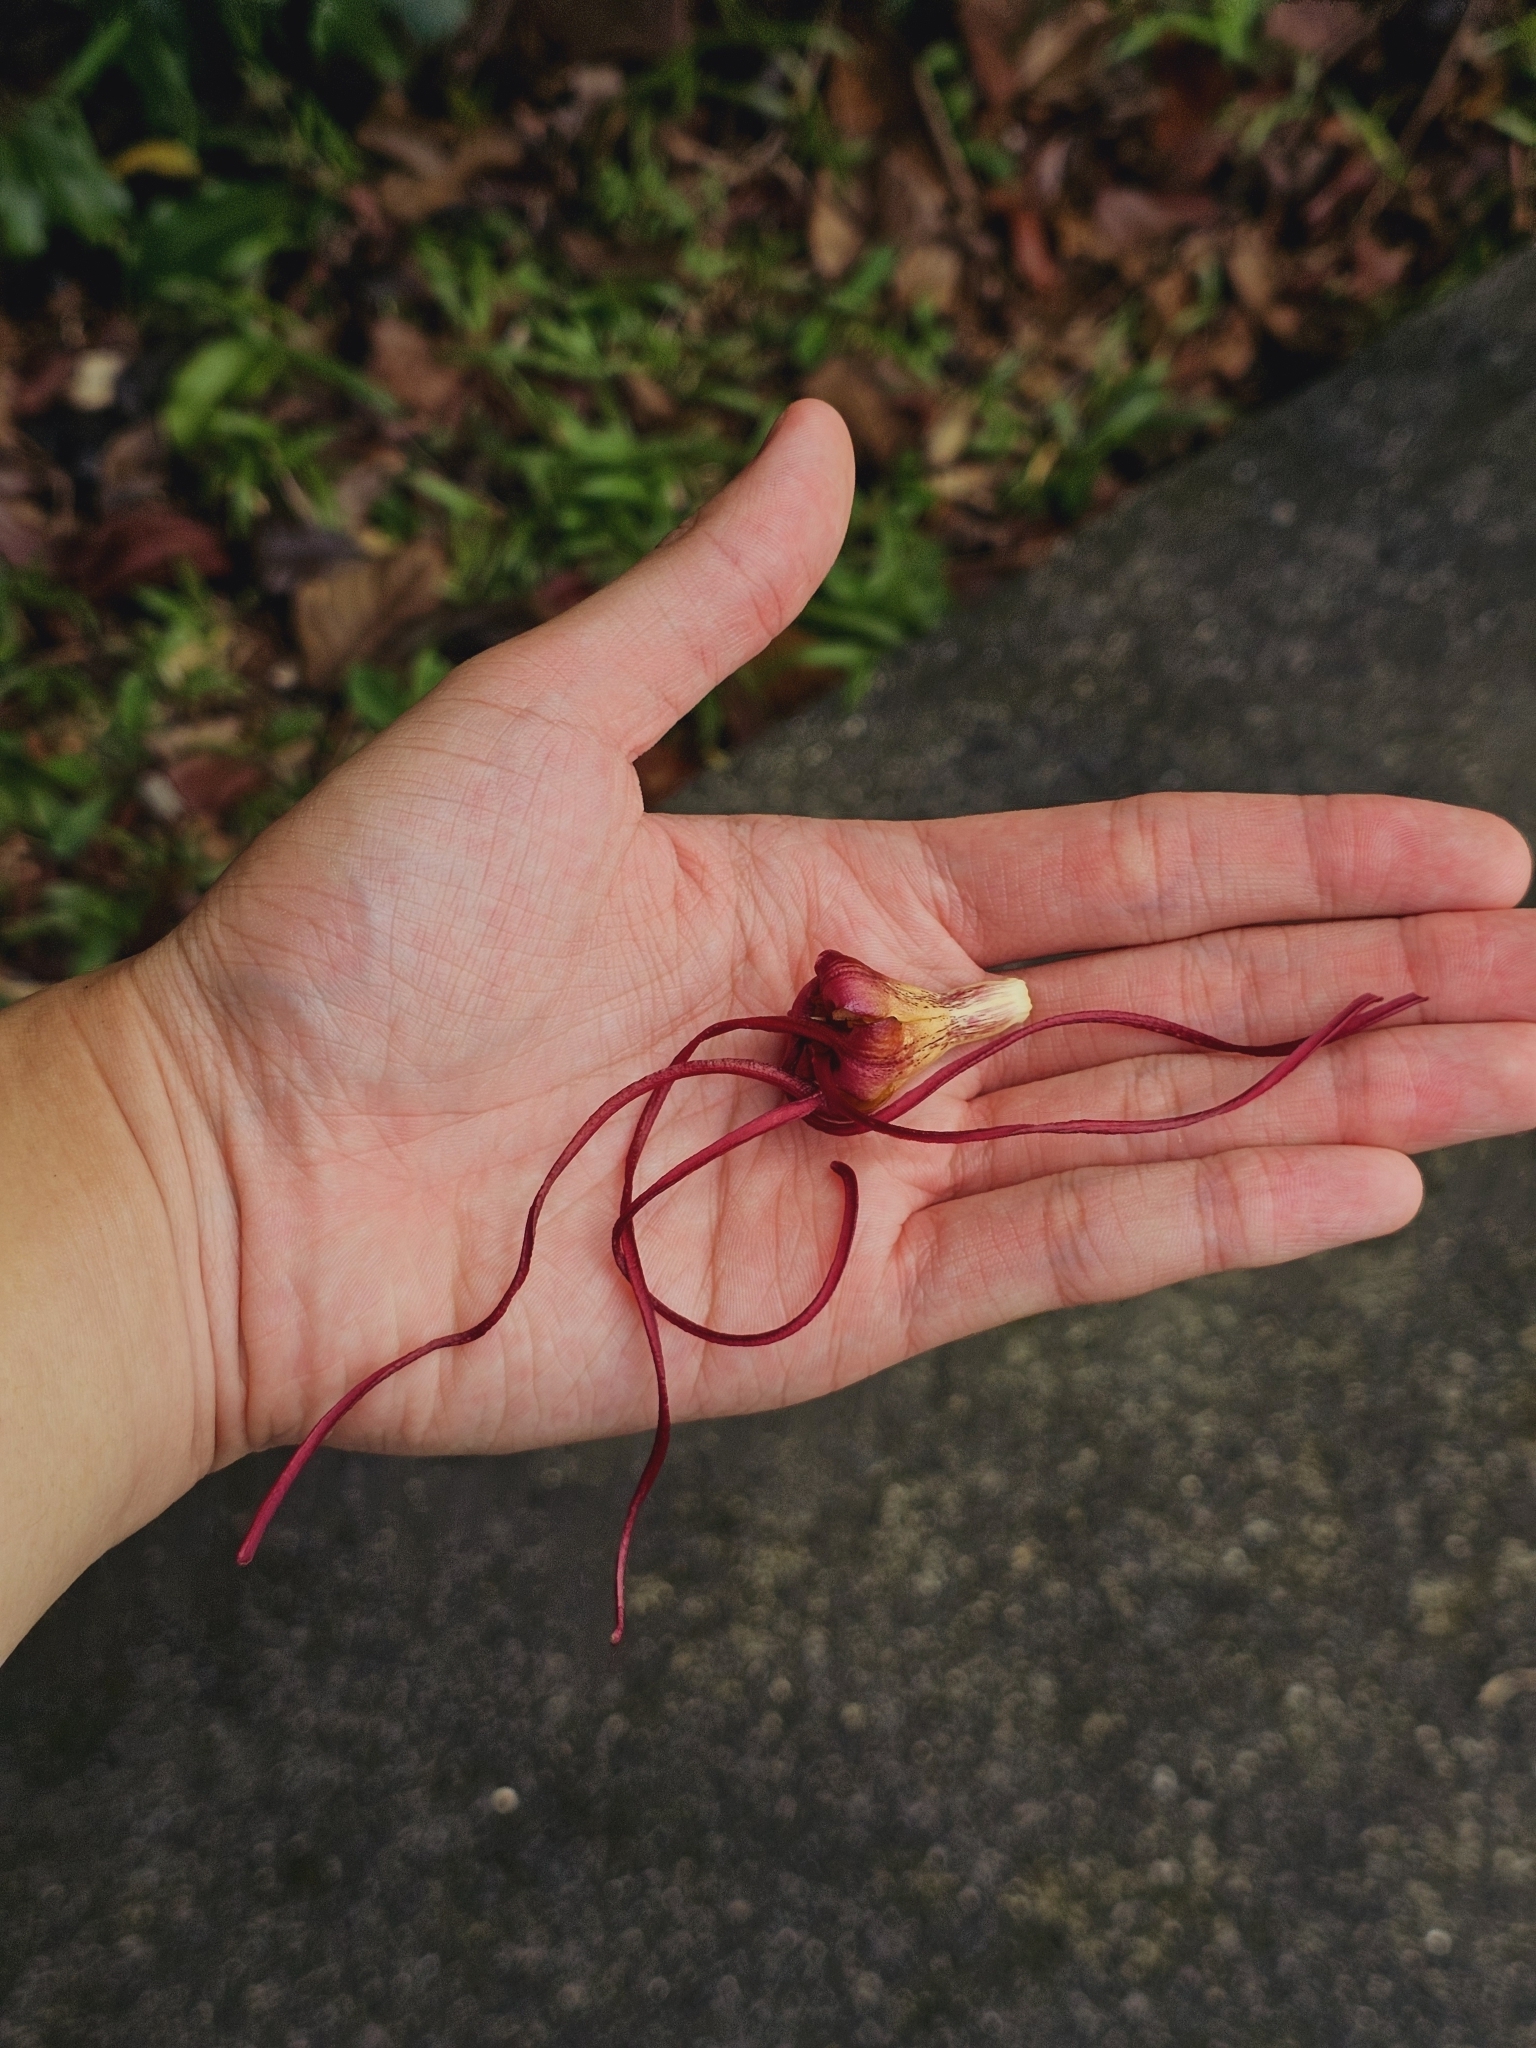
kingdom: Plantae
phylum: Tracheophyta
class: Magnoliopsida
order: Gentianales
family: Apocynaceae
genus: Strophanthus
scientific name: Strophanthus caudatus
